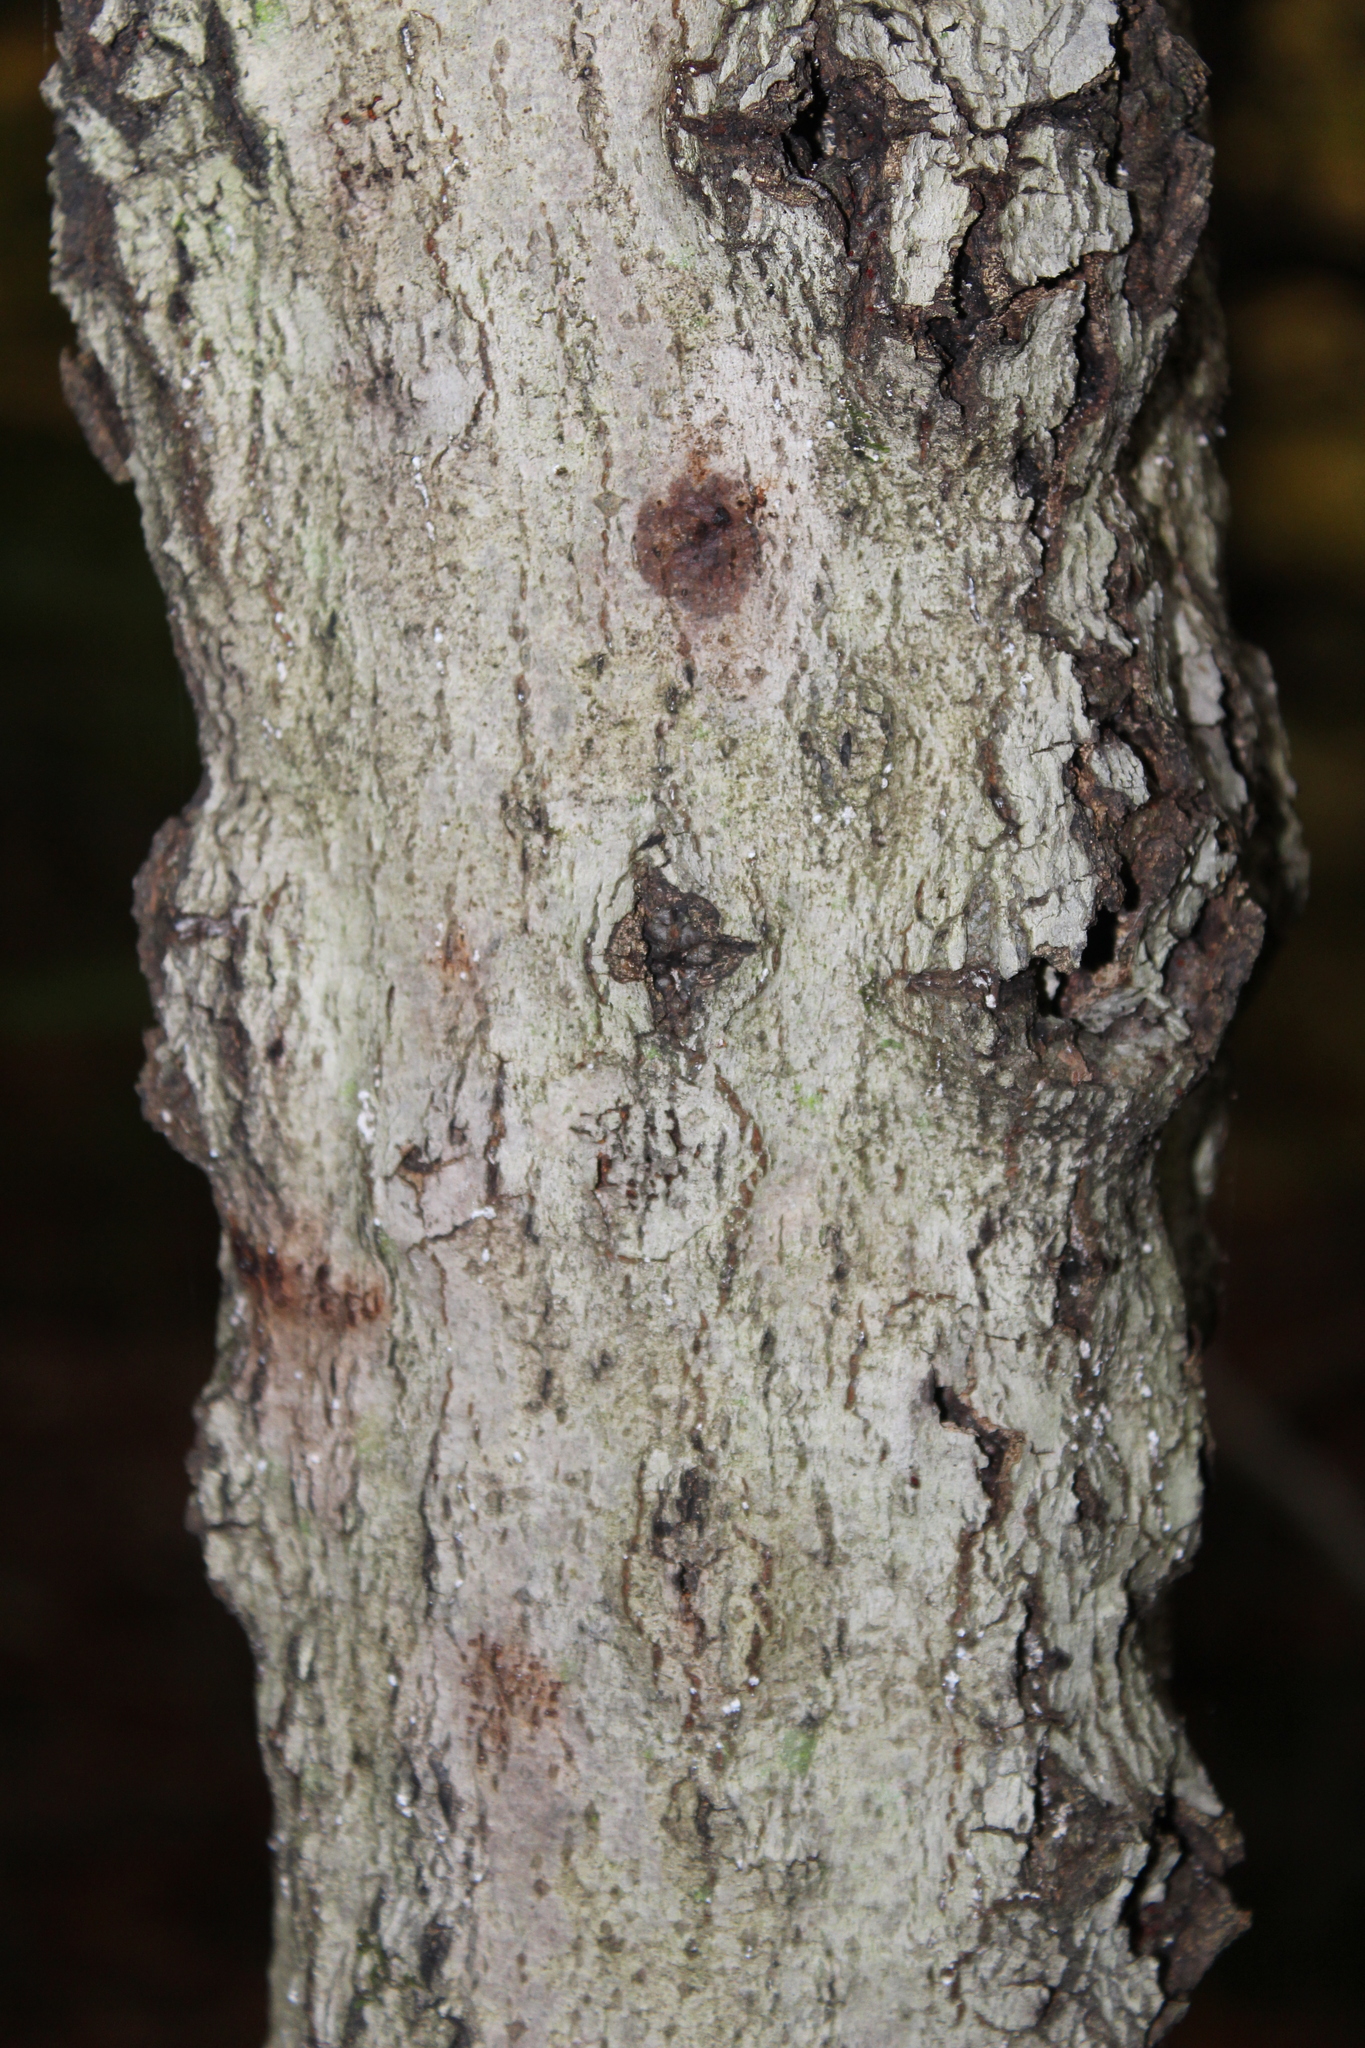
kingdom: Plantae
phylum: Tracheophyta
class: Magnoliopsida
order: Fagales
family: Fagaceae
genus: Fagus
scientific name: Fagus grandifolia
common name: American beech
